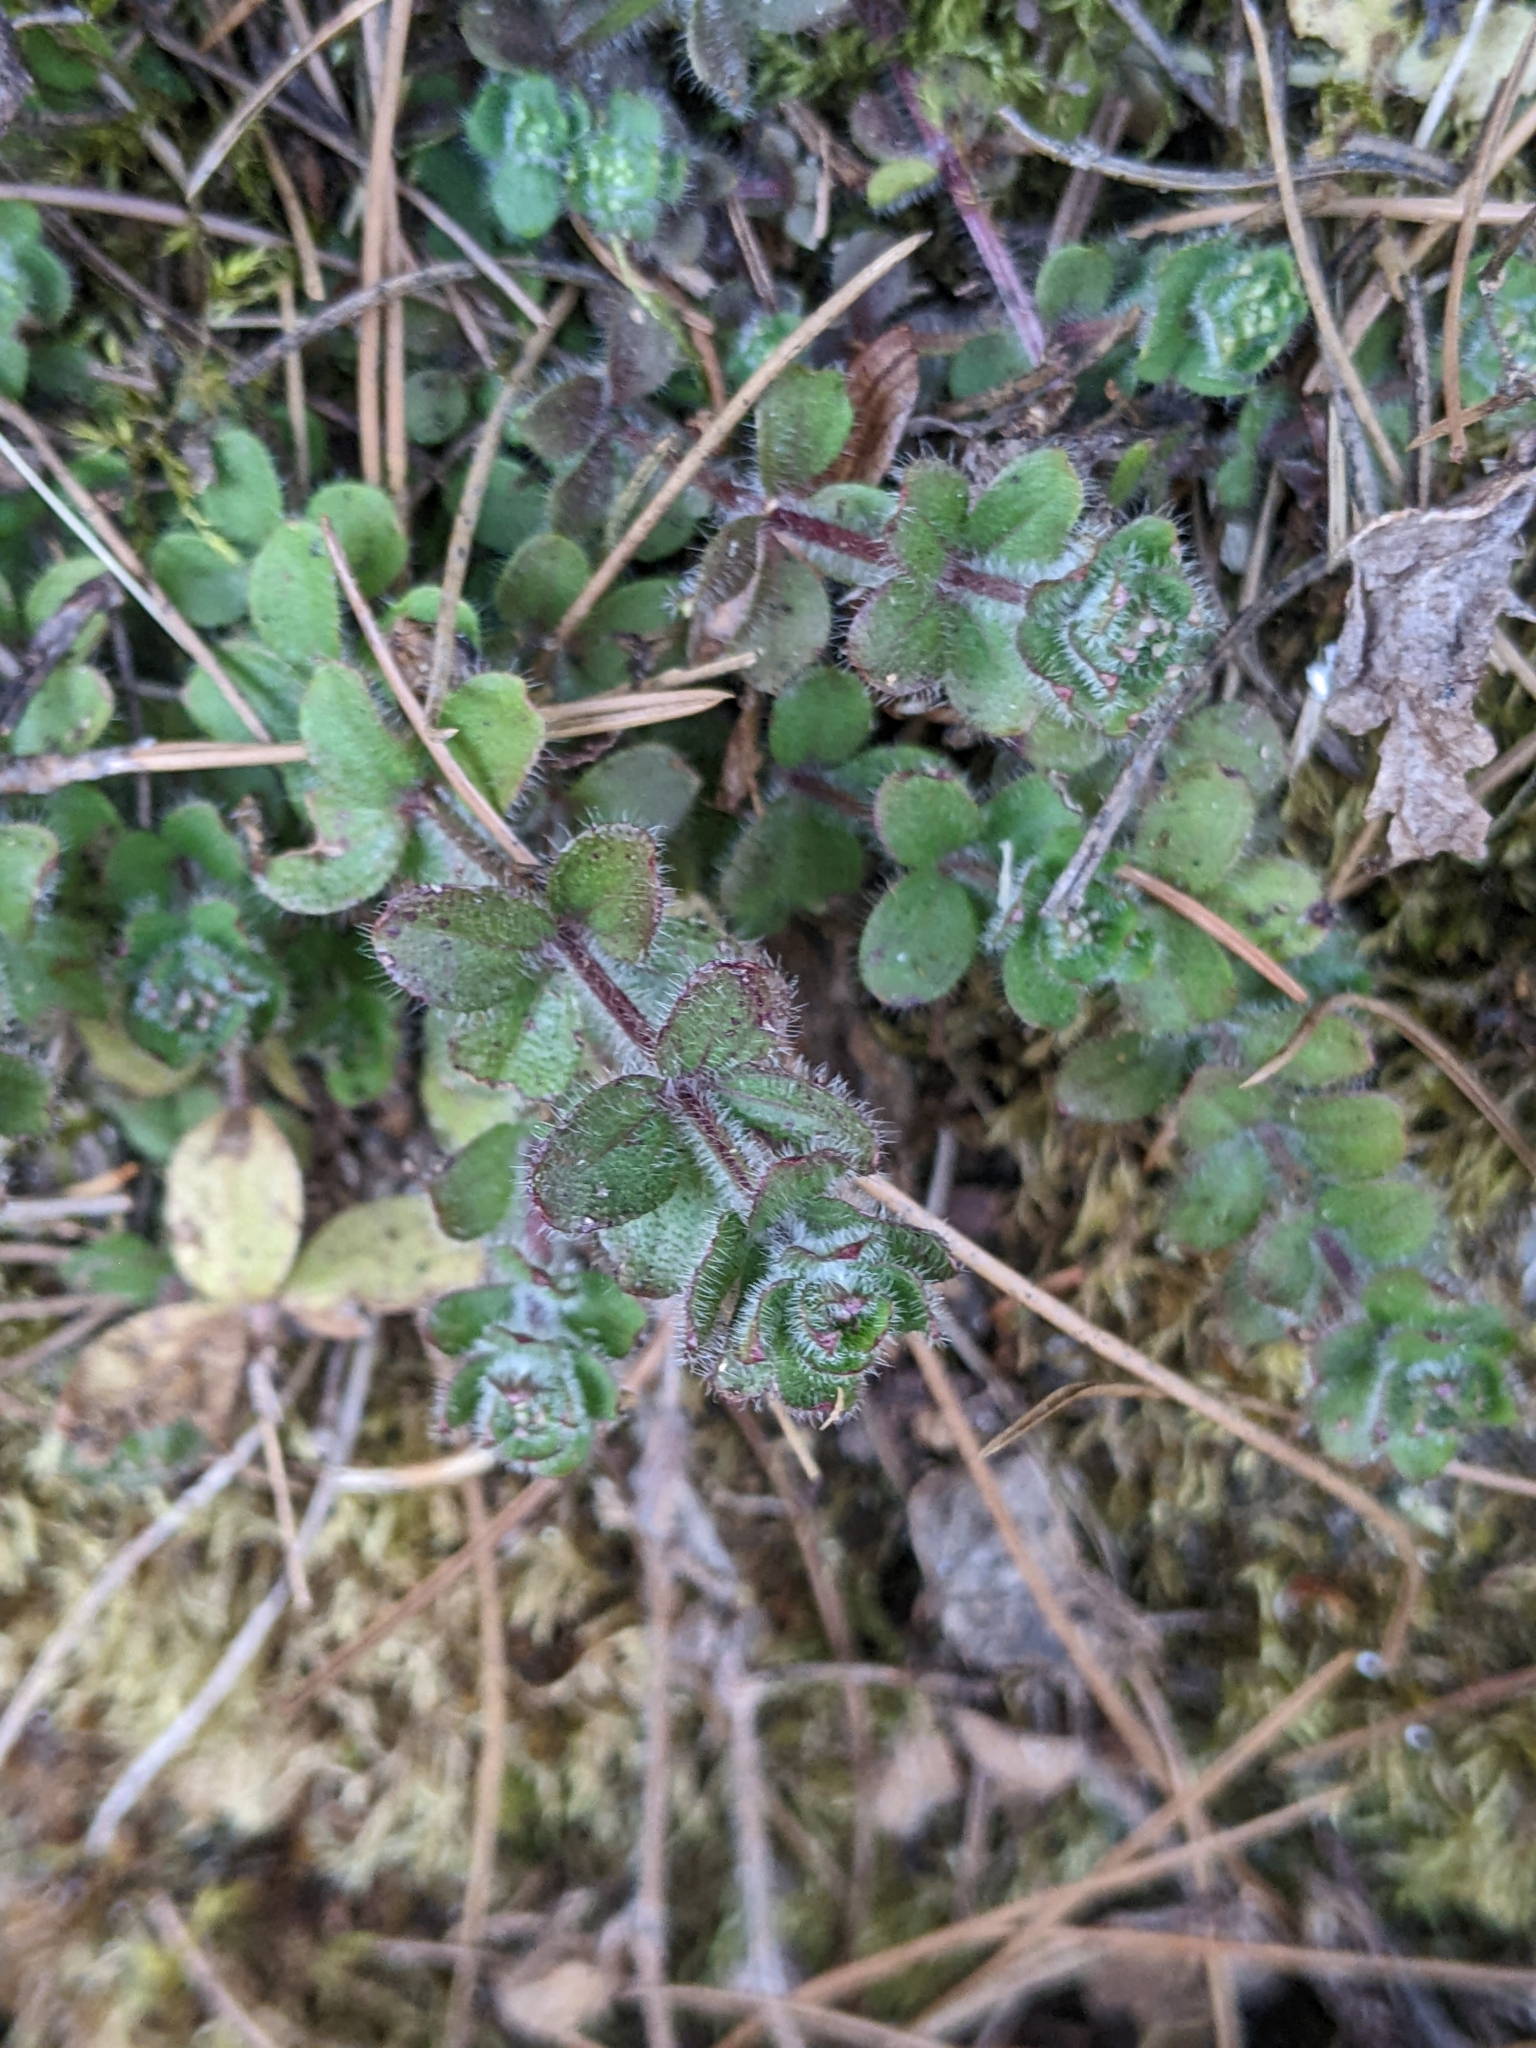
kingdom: Plantae
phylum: Tracheophyta
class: Magnoliopsida
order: Gentianales
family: Rubiaceae
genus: Galium
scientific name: Galium formosense
